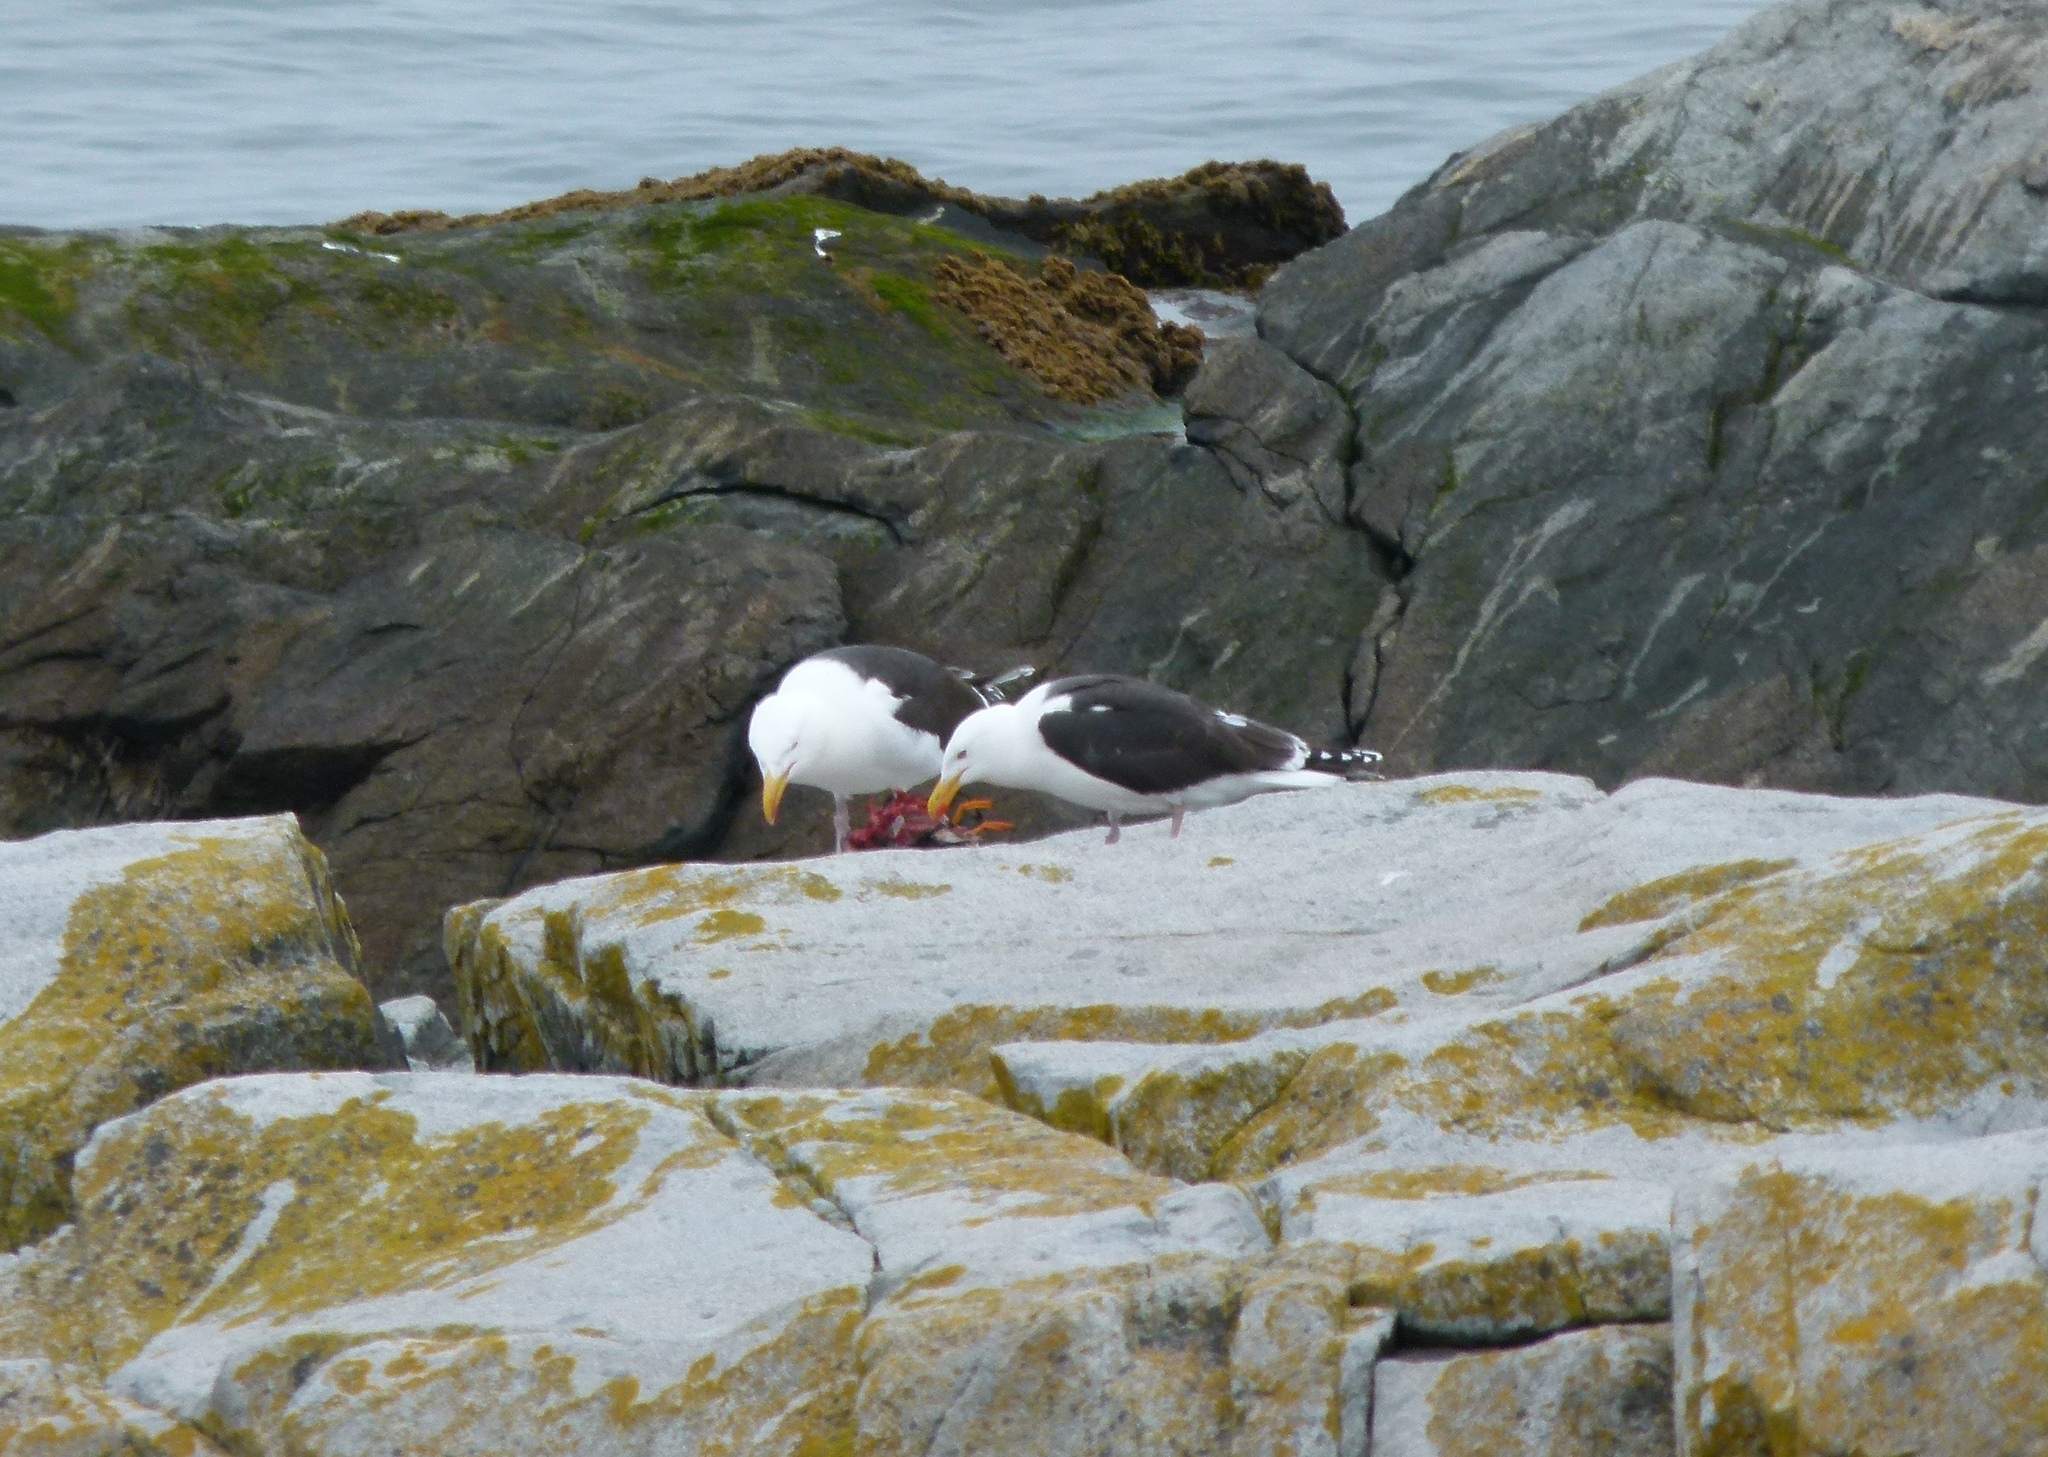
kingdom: Animalia
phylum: Chordata
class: Aves
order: Charadriiformes
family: Laridae
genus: Larus
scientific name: Larus marinus
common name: Great black-backed gull
